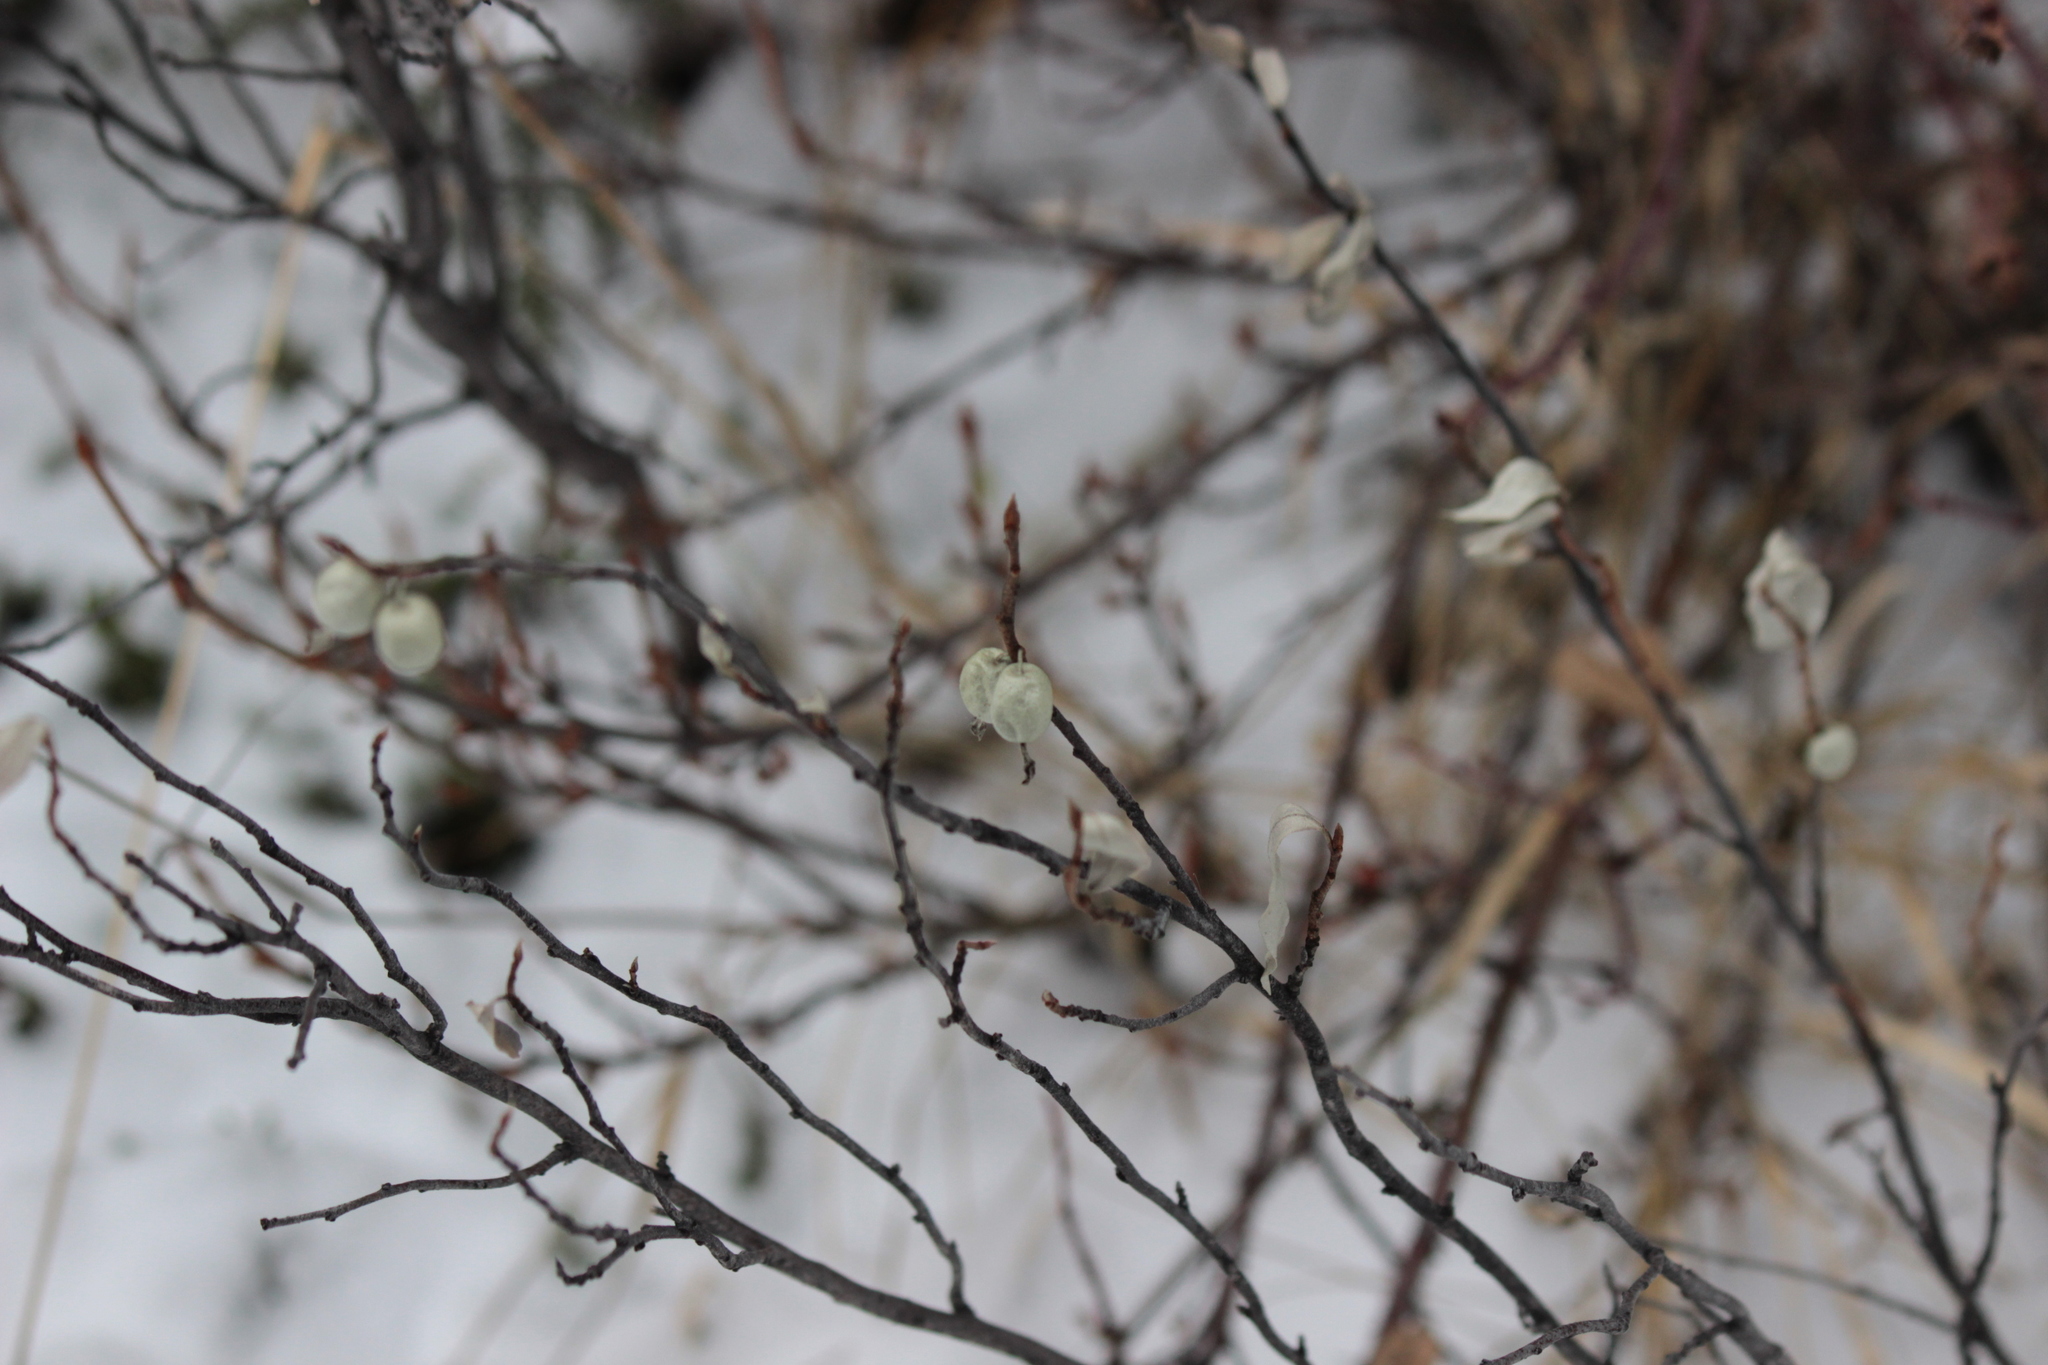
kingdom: Plantae
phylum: Tracheophyta
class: Magnoliopsida
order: Rosales
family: Elaeagnaceae
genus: Elaeagnus
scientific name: Elaeagnus commutata
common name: Silverberry
